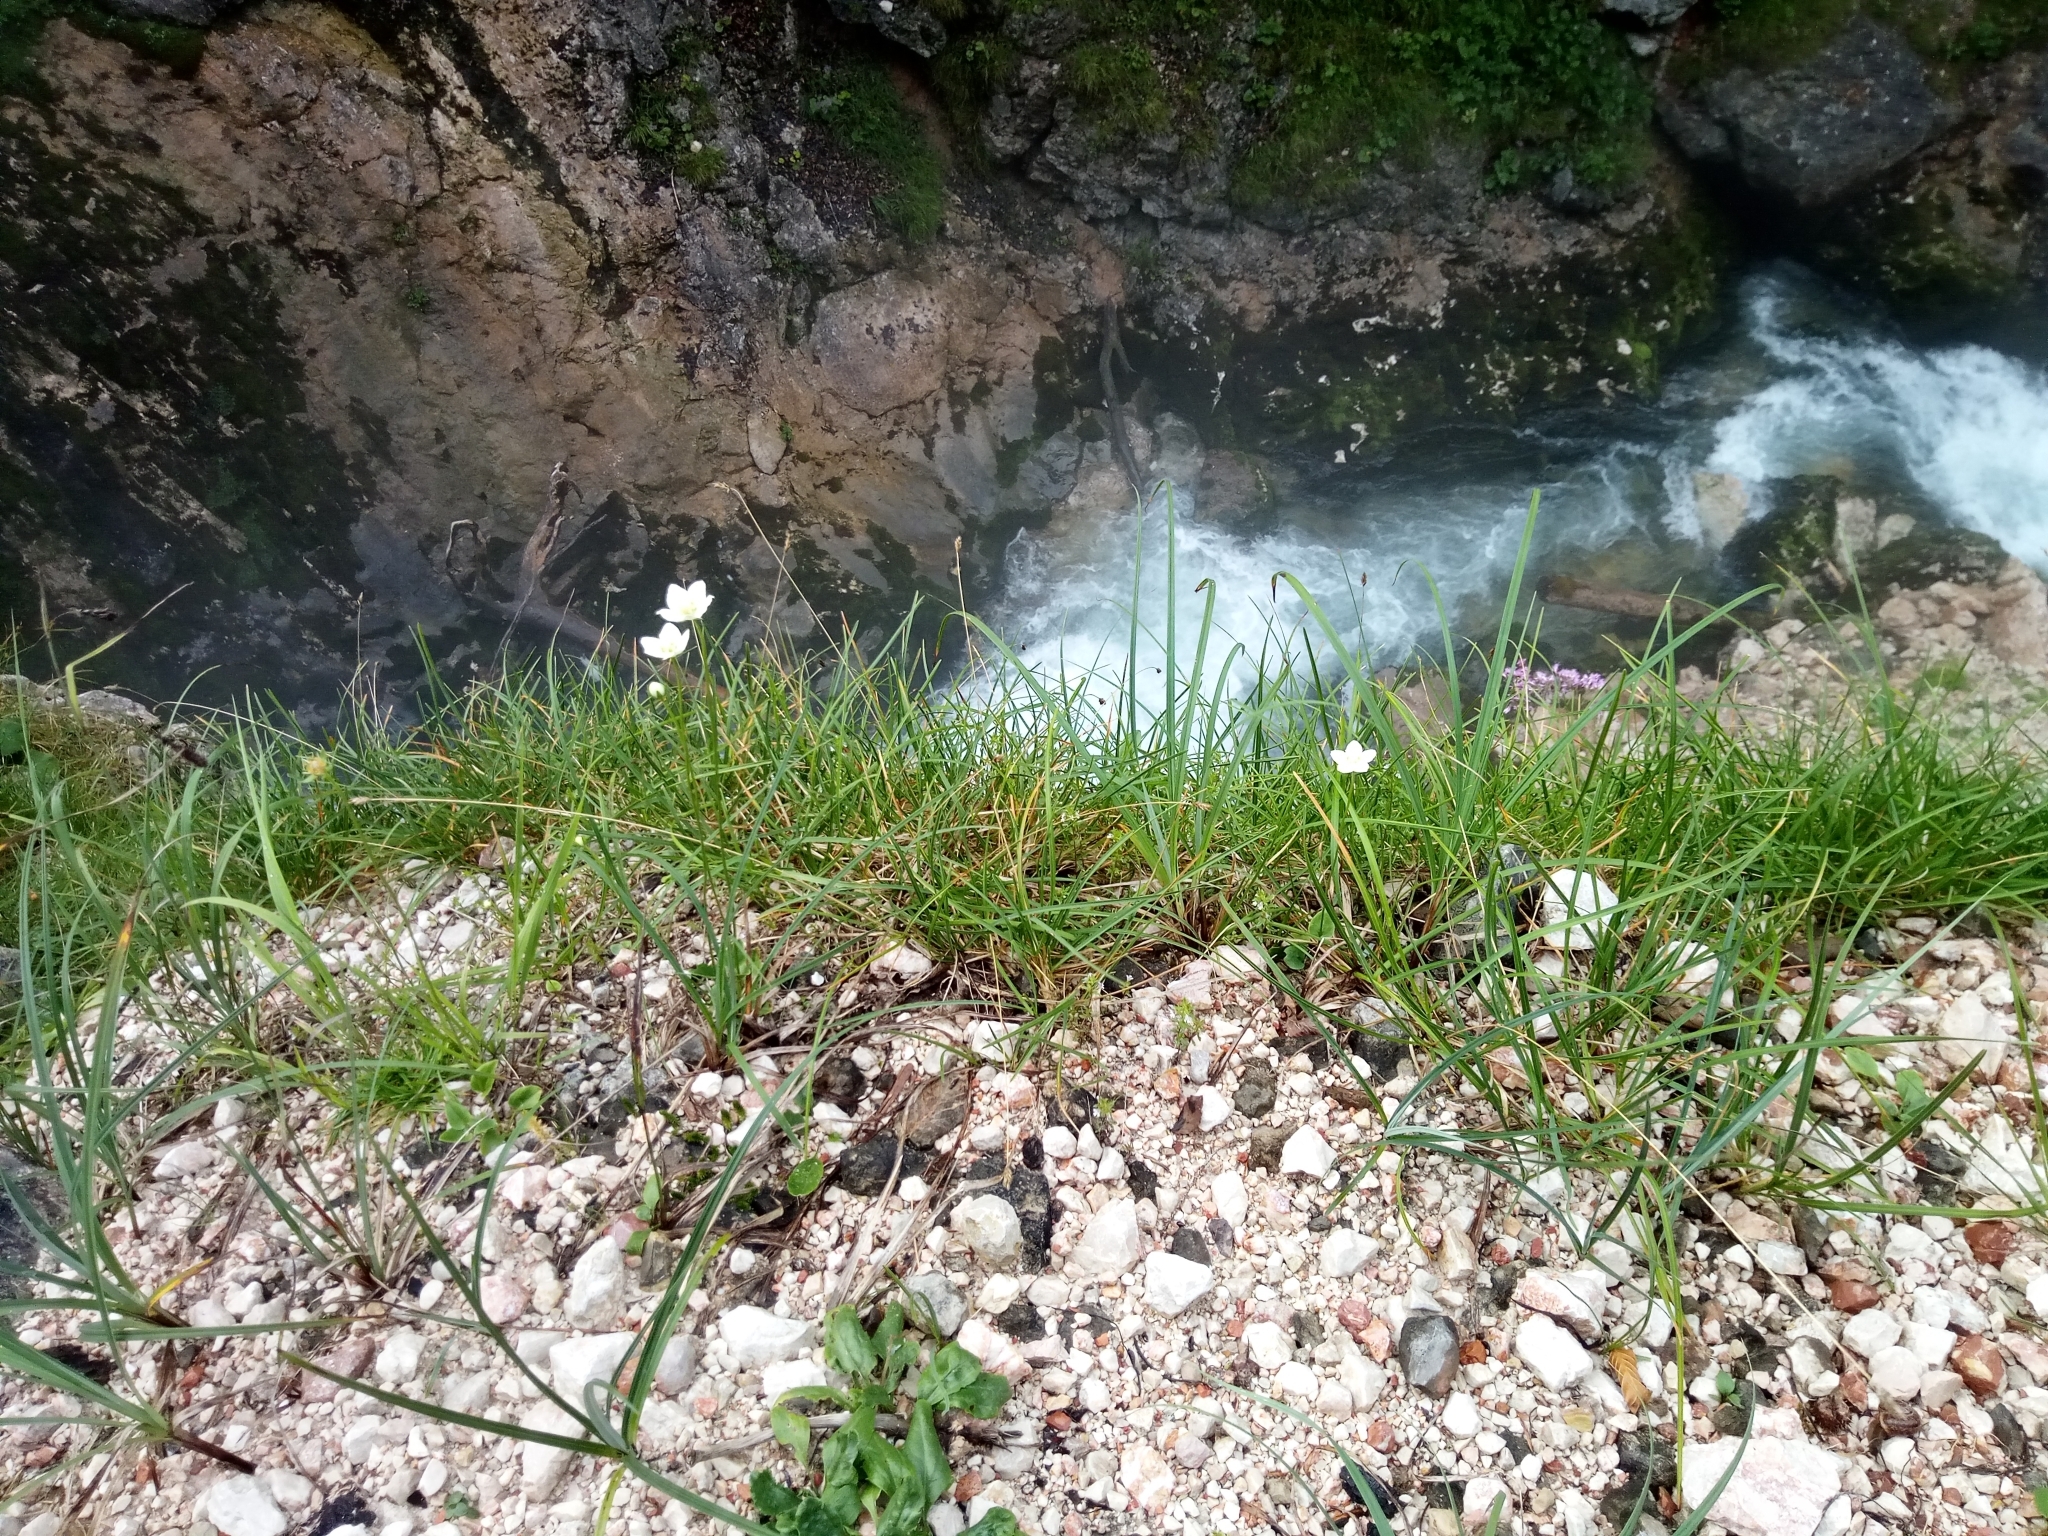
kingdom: Plantae
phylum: Tracheophyta
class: Magnoliopsida
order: Celastrales
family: Parnassiaceae
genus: Parnassia
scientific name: Parnassia palustris
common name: Grass-of-parnassus
